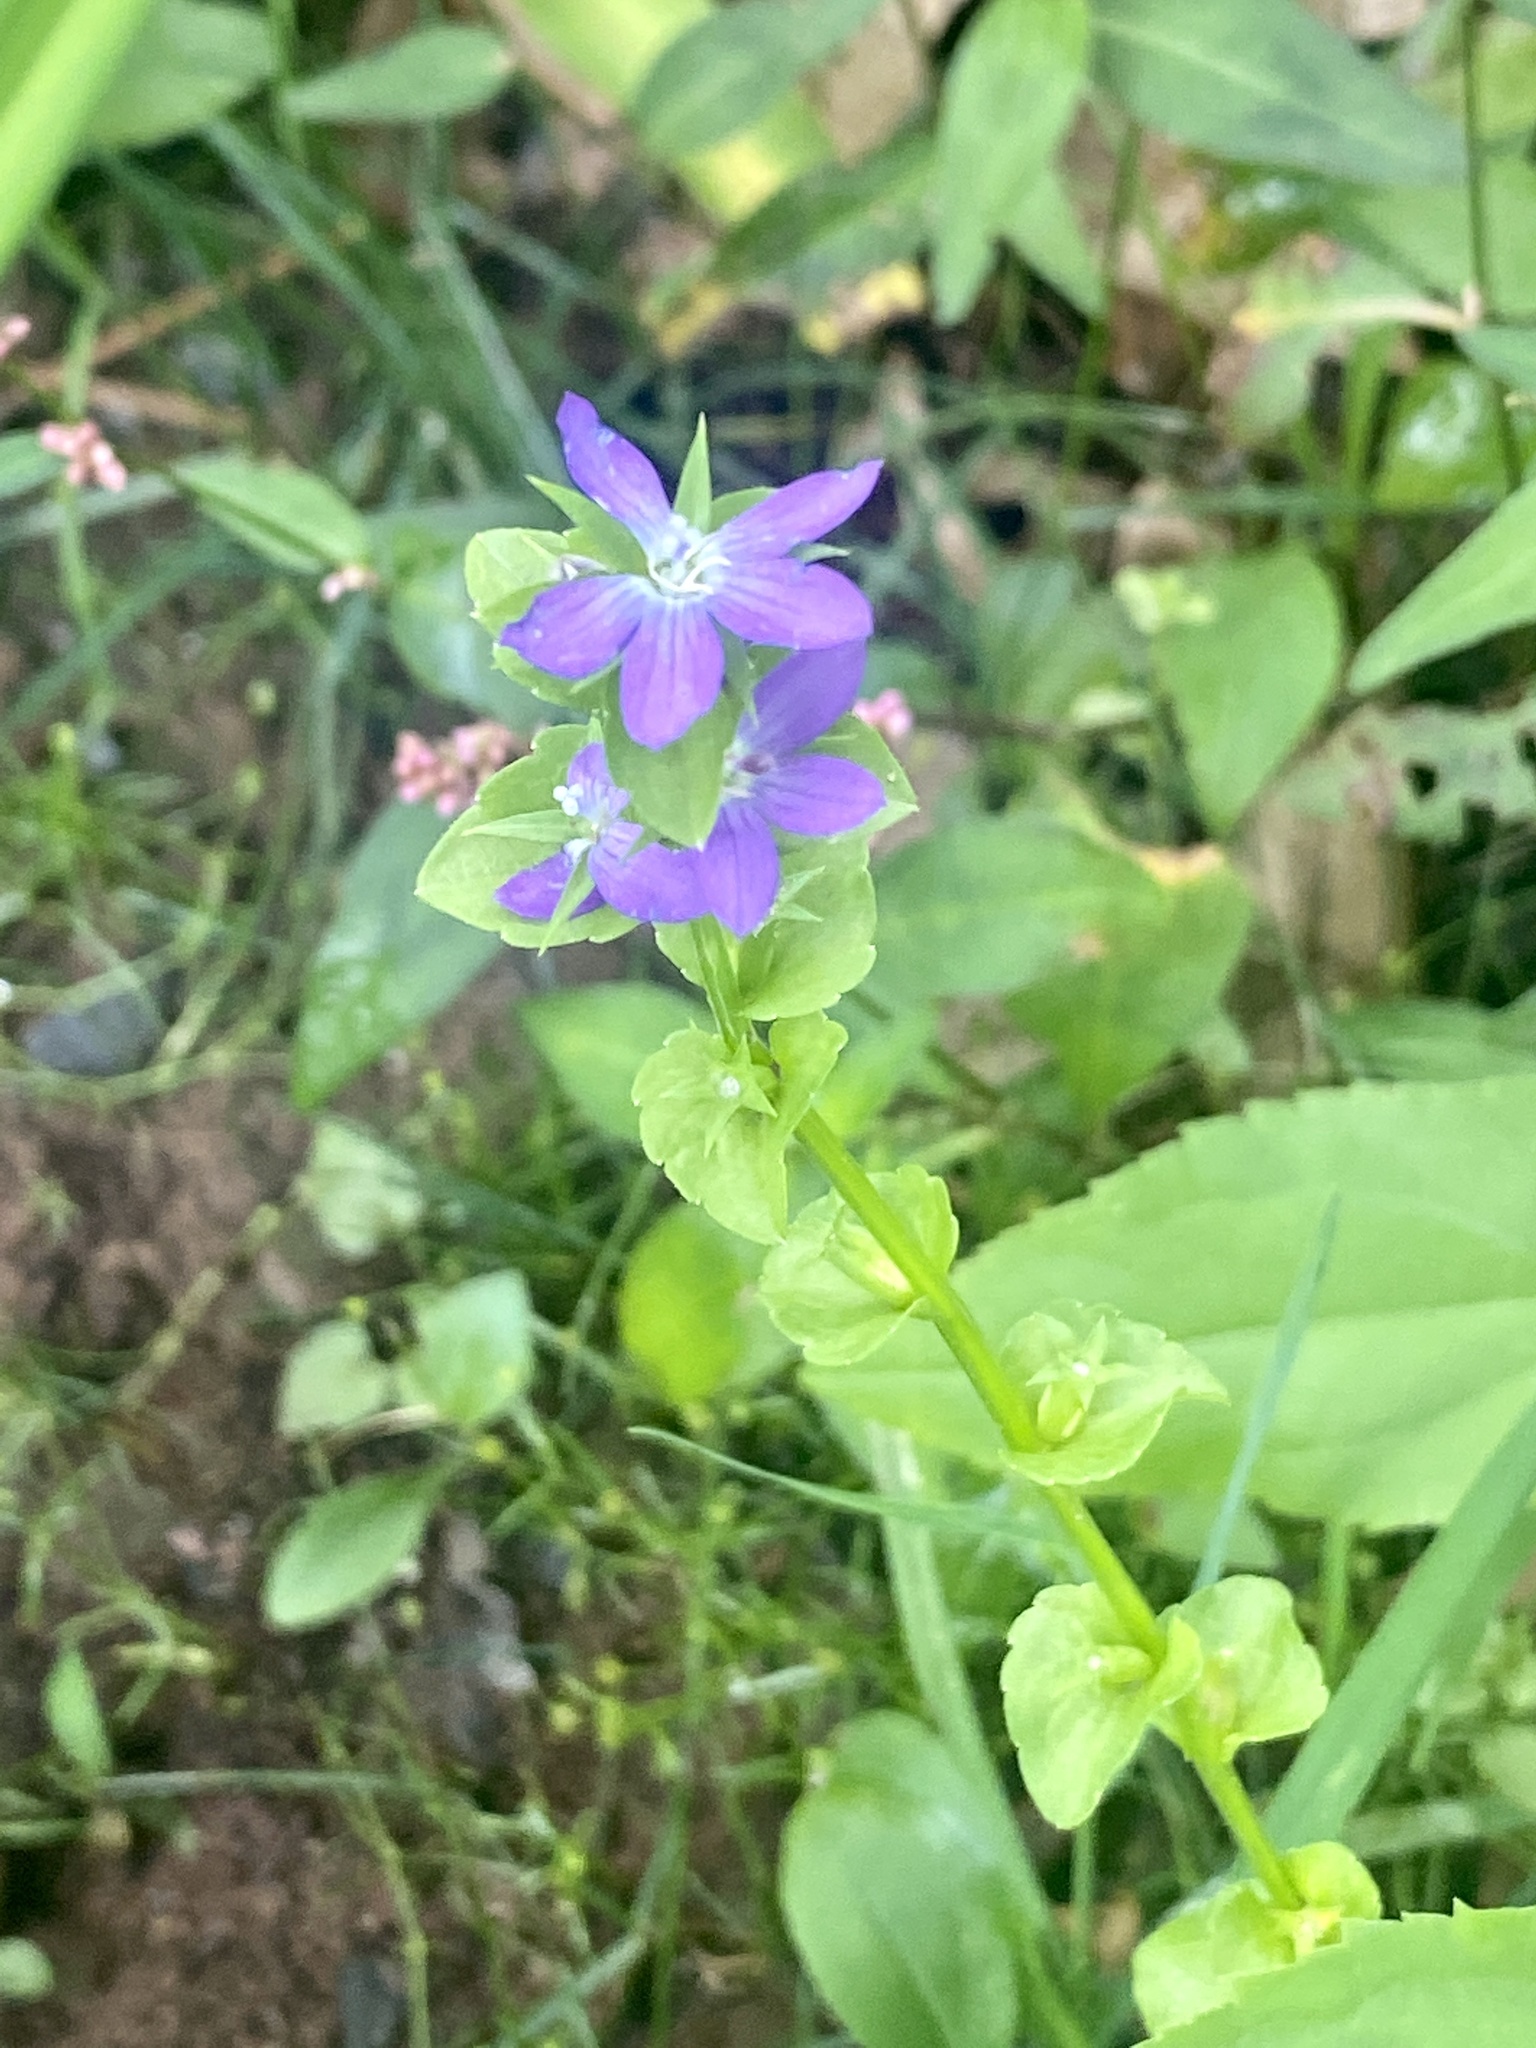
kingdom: Plantae
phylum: Tracheophyta
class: Magnoliopsida
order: Asterales
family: Campanulaceae
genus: Triodanis
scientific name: Triodanis perfoliata
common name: Clasping venus' looking-glass
